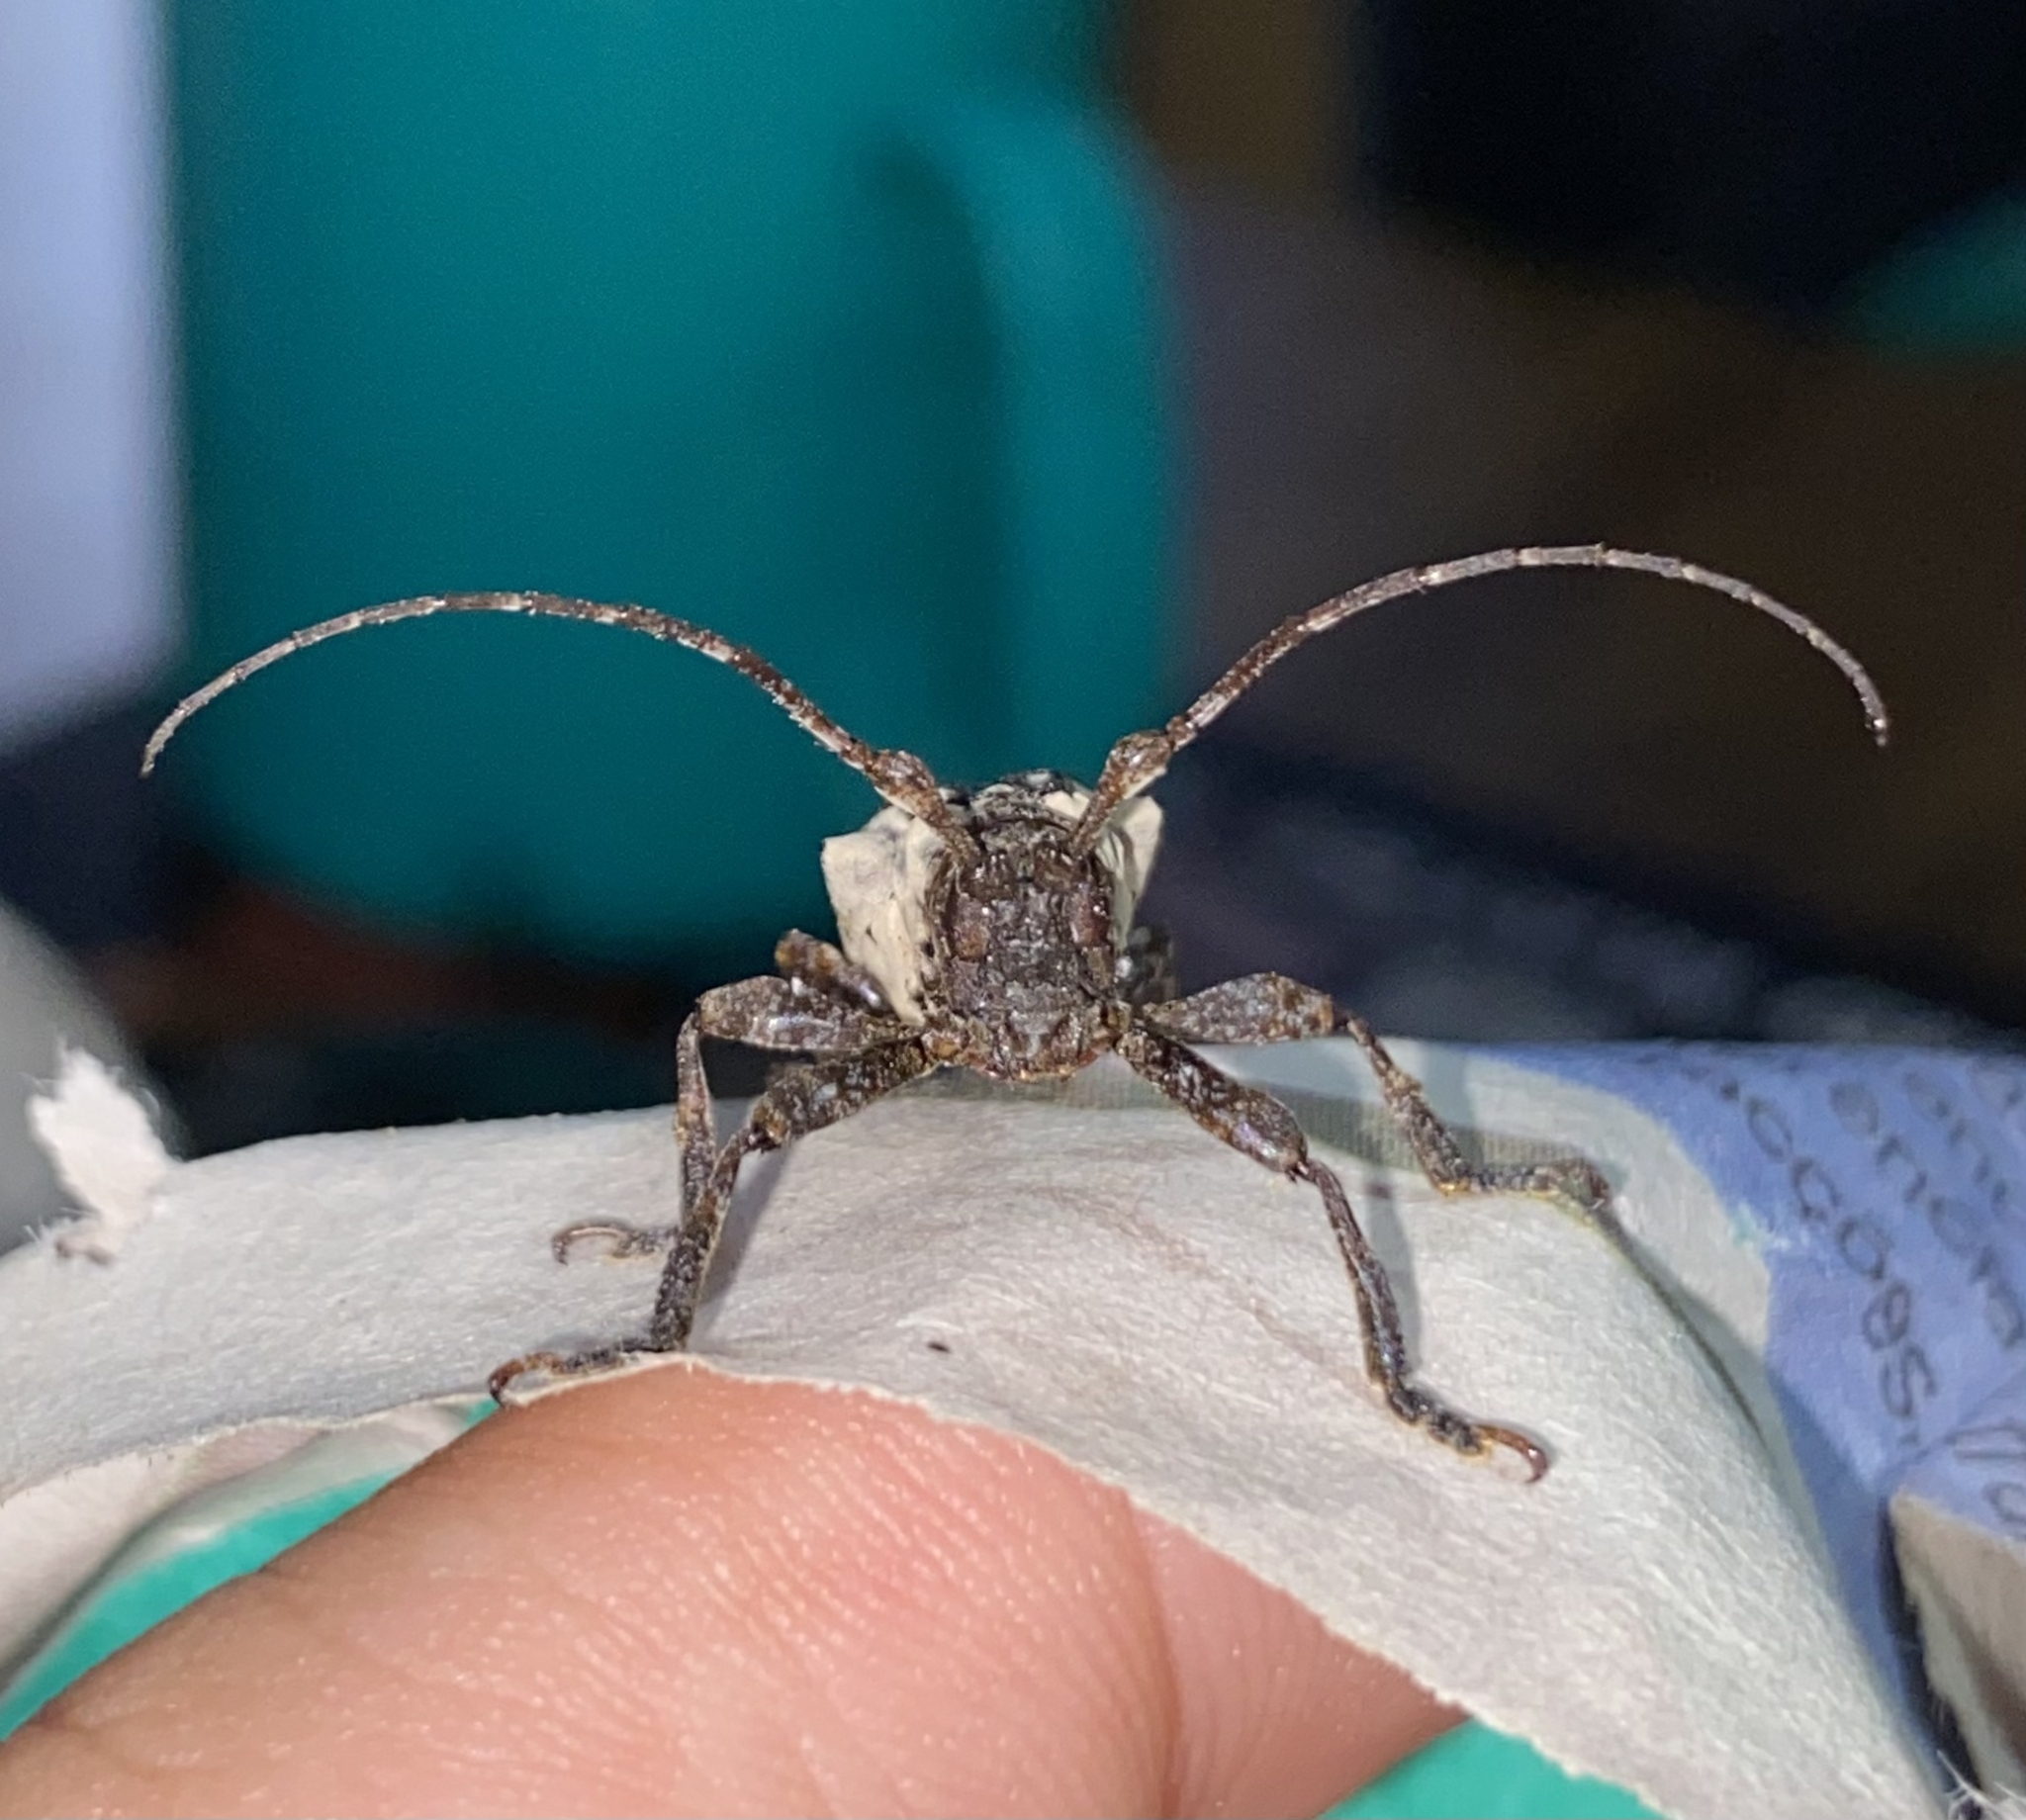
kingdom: Animalia
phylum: Arthropoda
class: Insecta
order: Coleoptera
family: Cerambycidae
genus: Cipriscola
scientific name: Cipriscola fasciata
